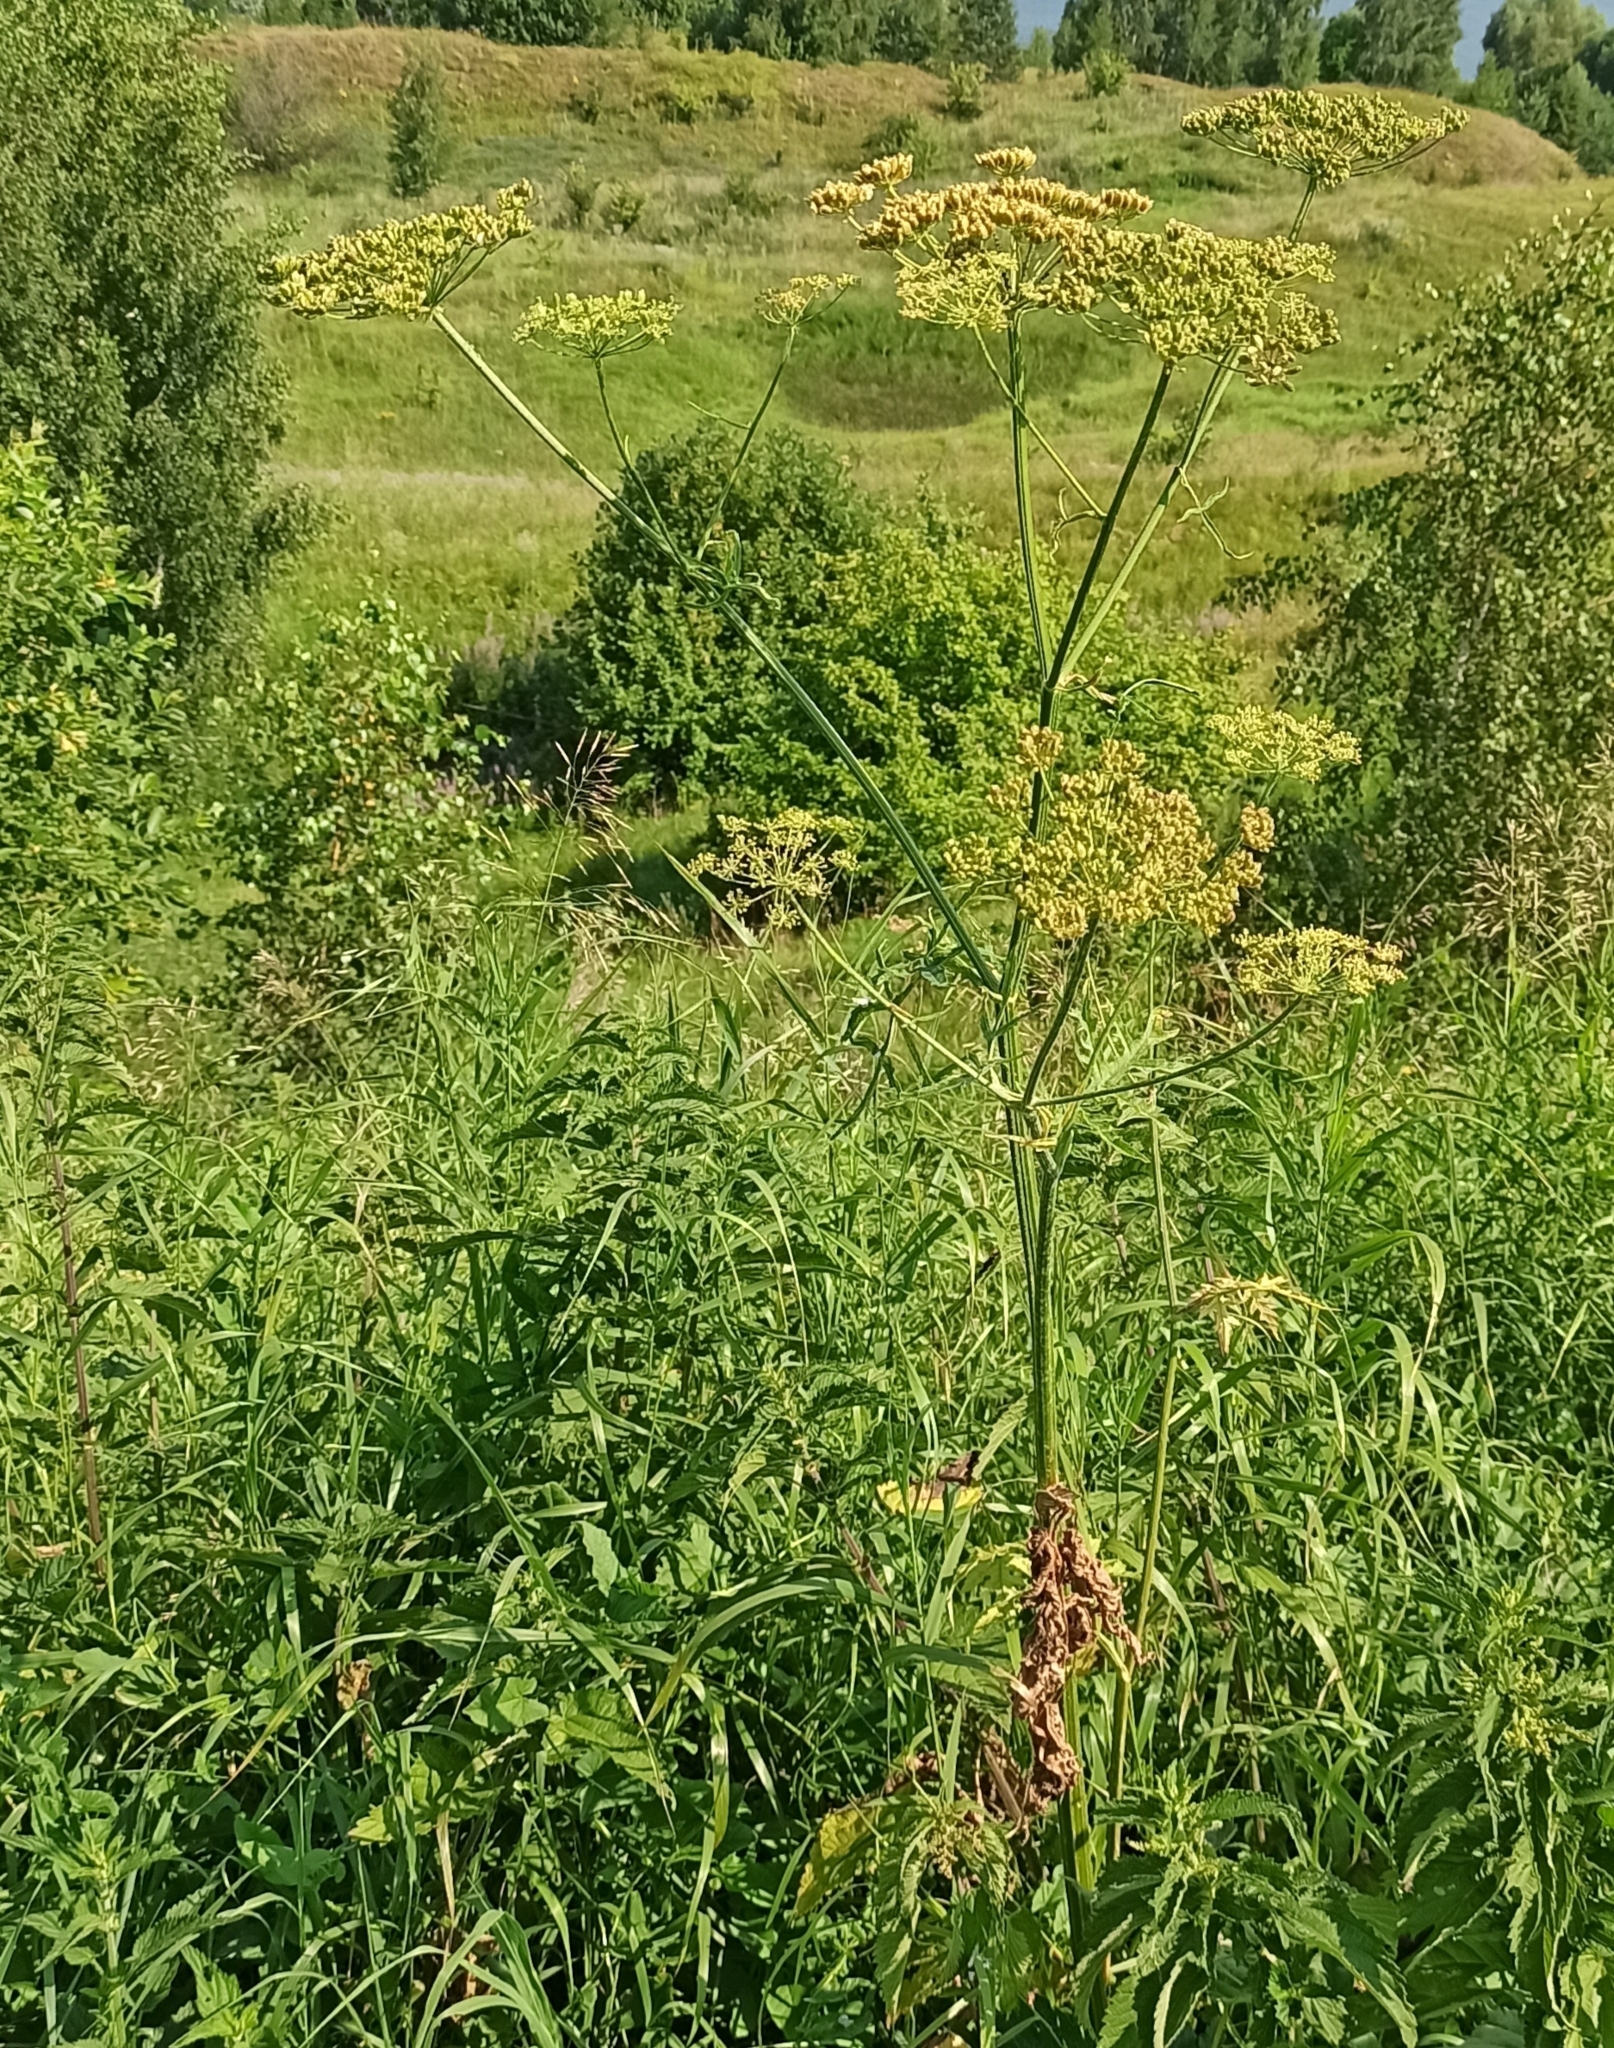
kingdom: Plantae
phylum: Tracheophyta
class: Magnoliopsida
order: Apiales
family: Apiaceae
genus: Heracleum
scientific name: Heracleum sphondylium
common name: Hogweed
